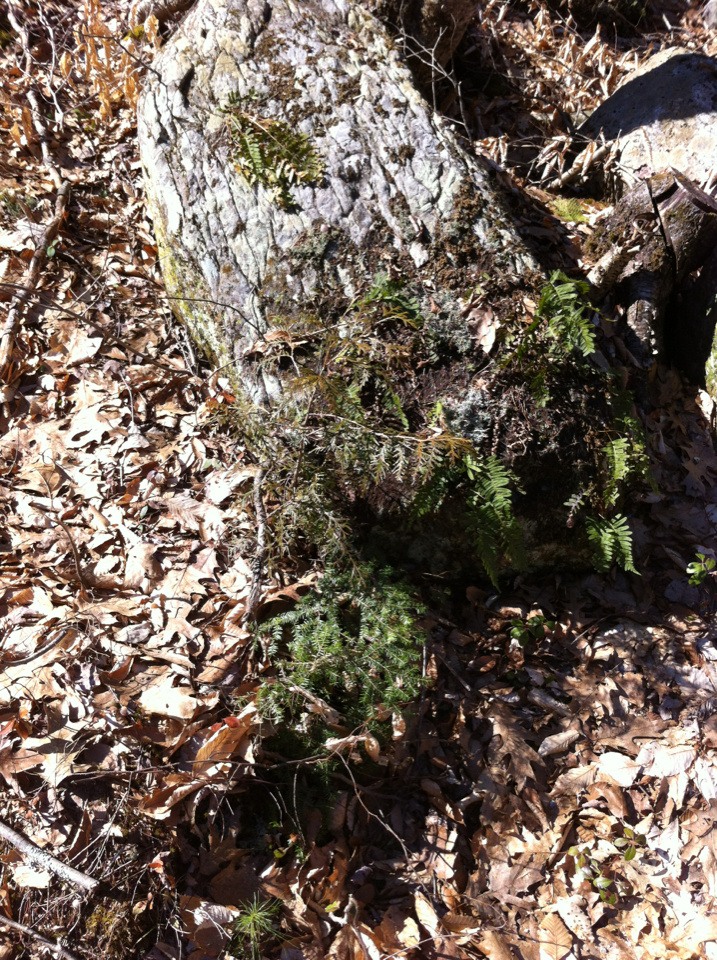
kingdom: Plantae
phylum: Tracheophyta
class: Pinopsida
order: Pinales
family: Cupressaceae
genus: Thuja
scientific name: Thuja occidentalis
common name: Northern white-cedar
